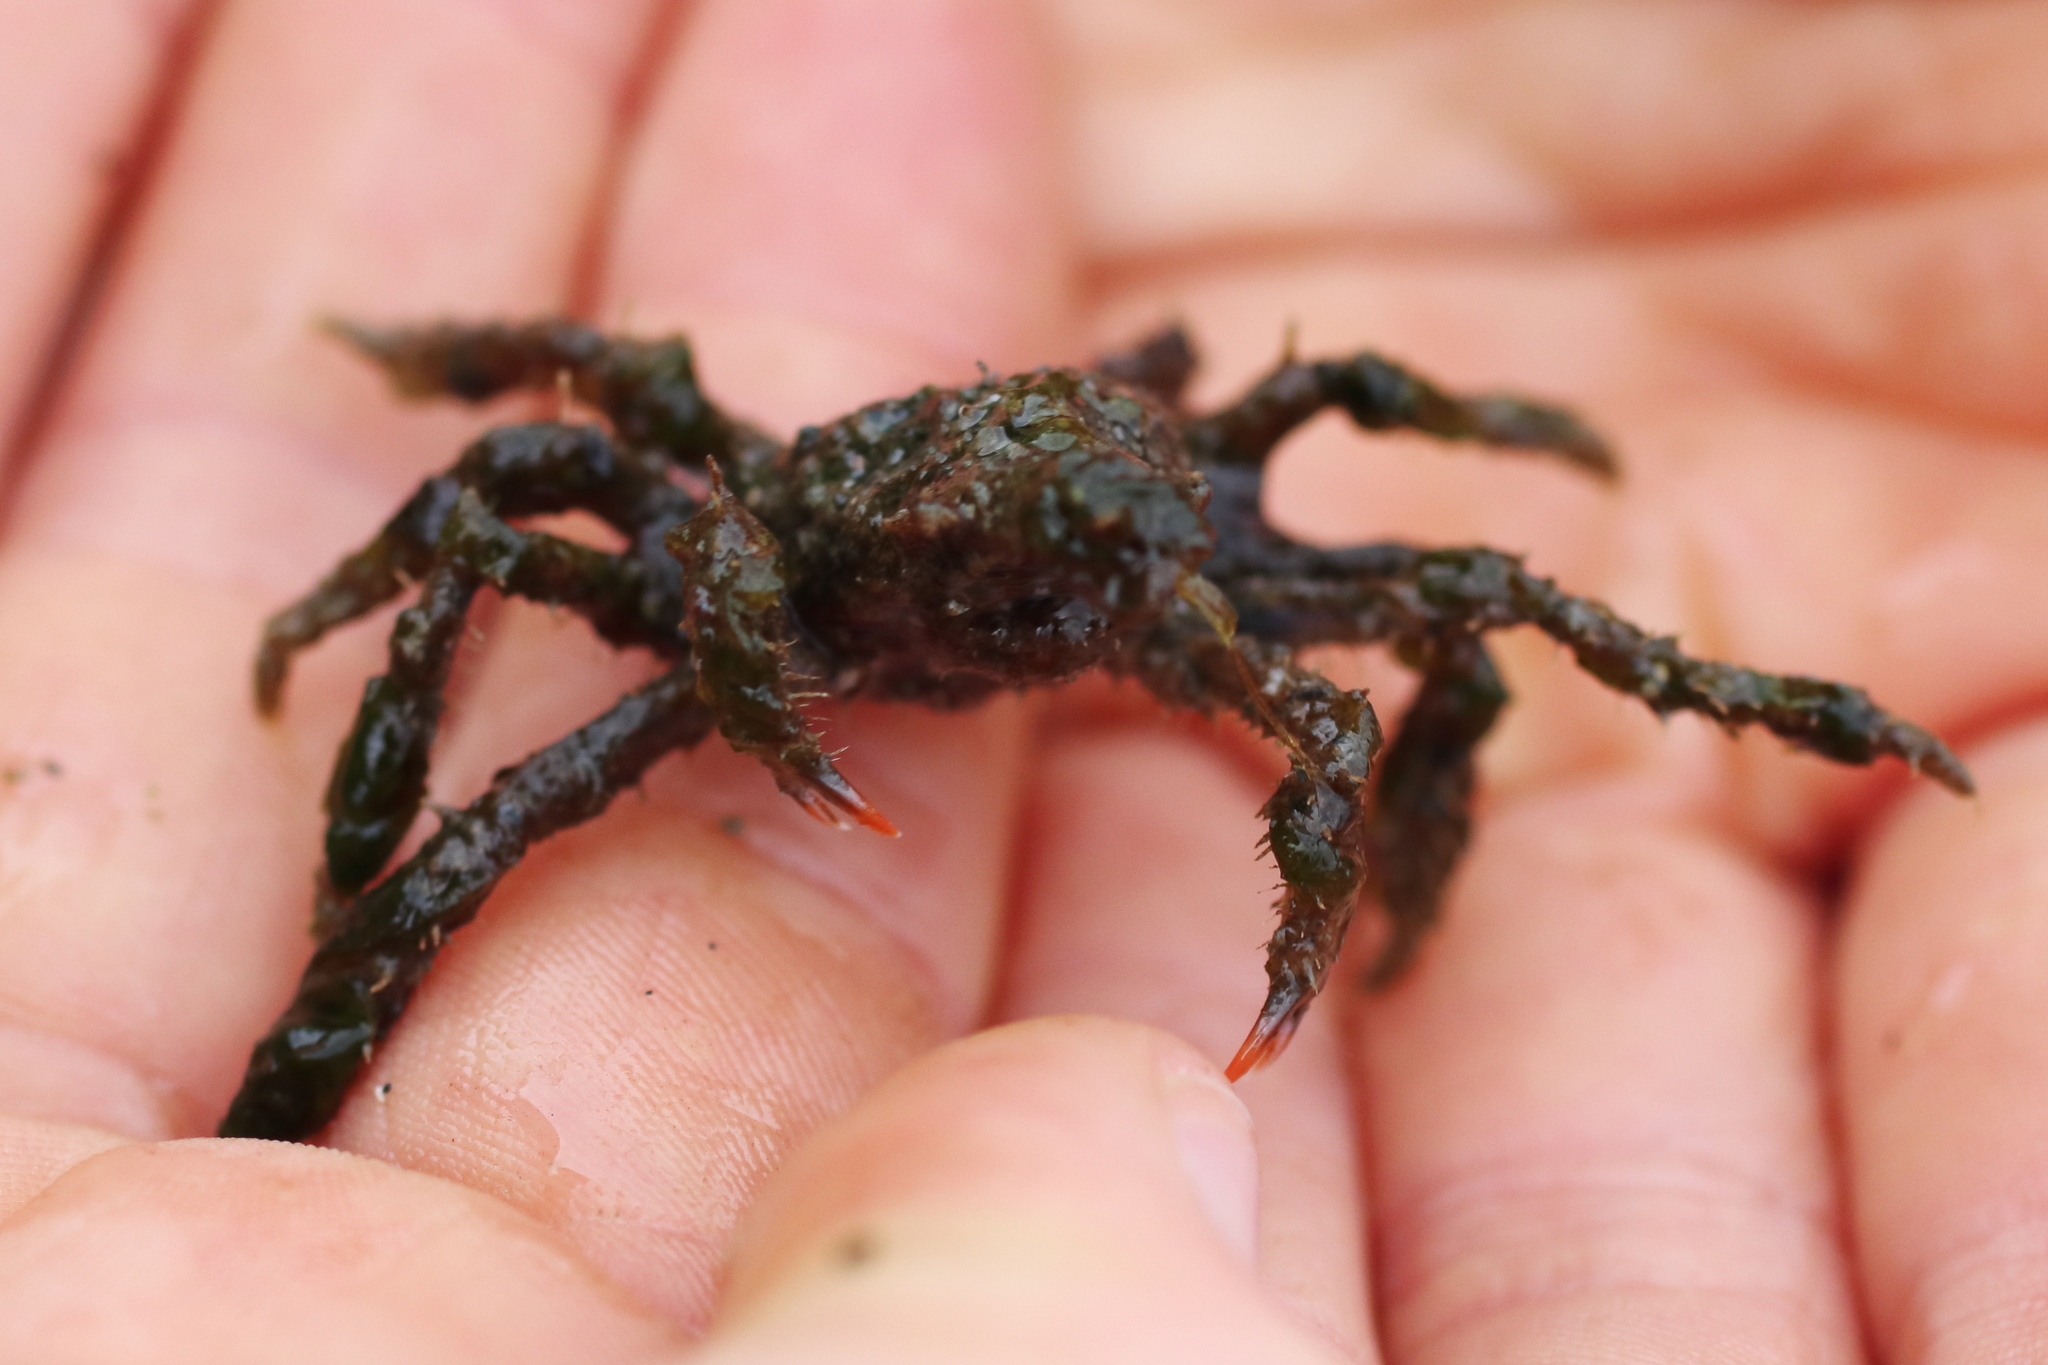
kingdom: Animalia
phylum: Arthropoda
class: Malacostraca
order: Decapoda
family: Oregoniidae
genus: Oregonia
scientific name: Oregonia gracilis
